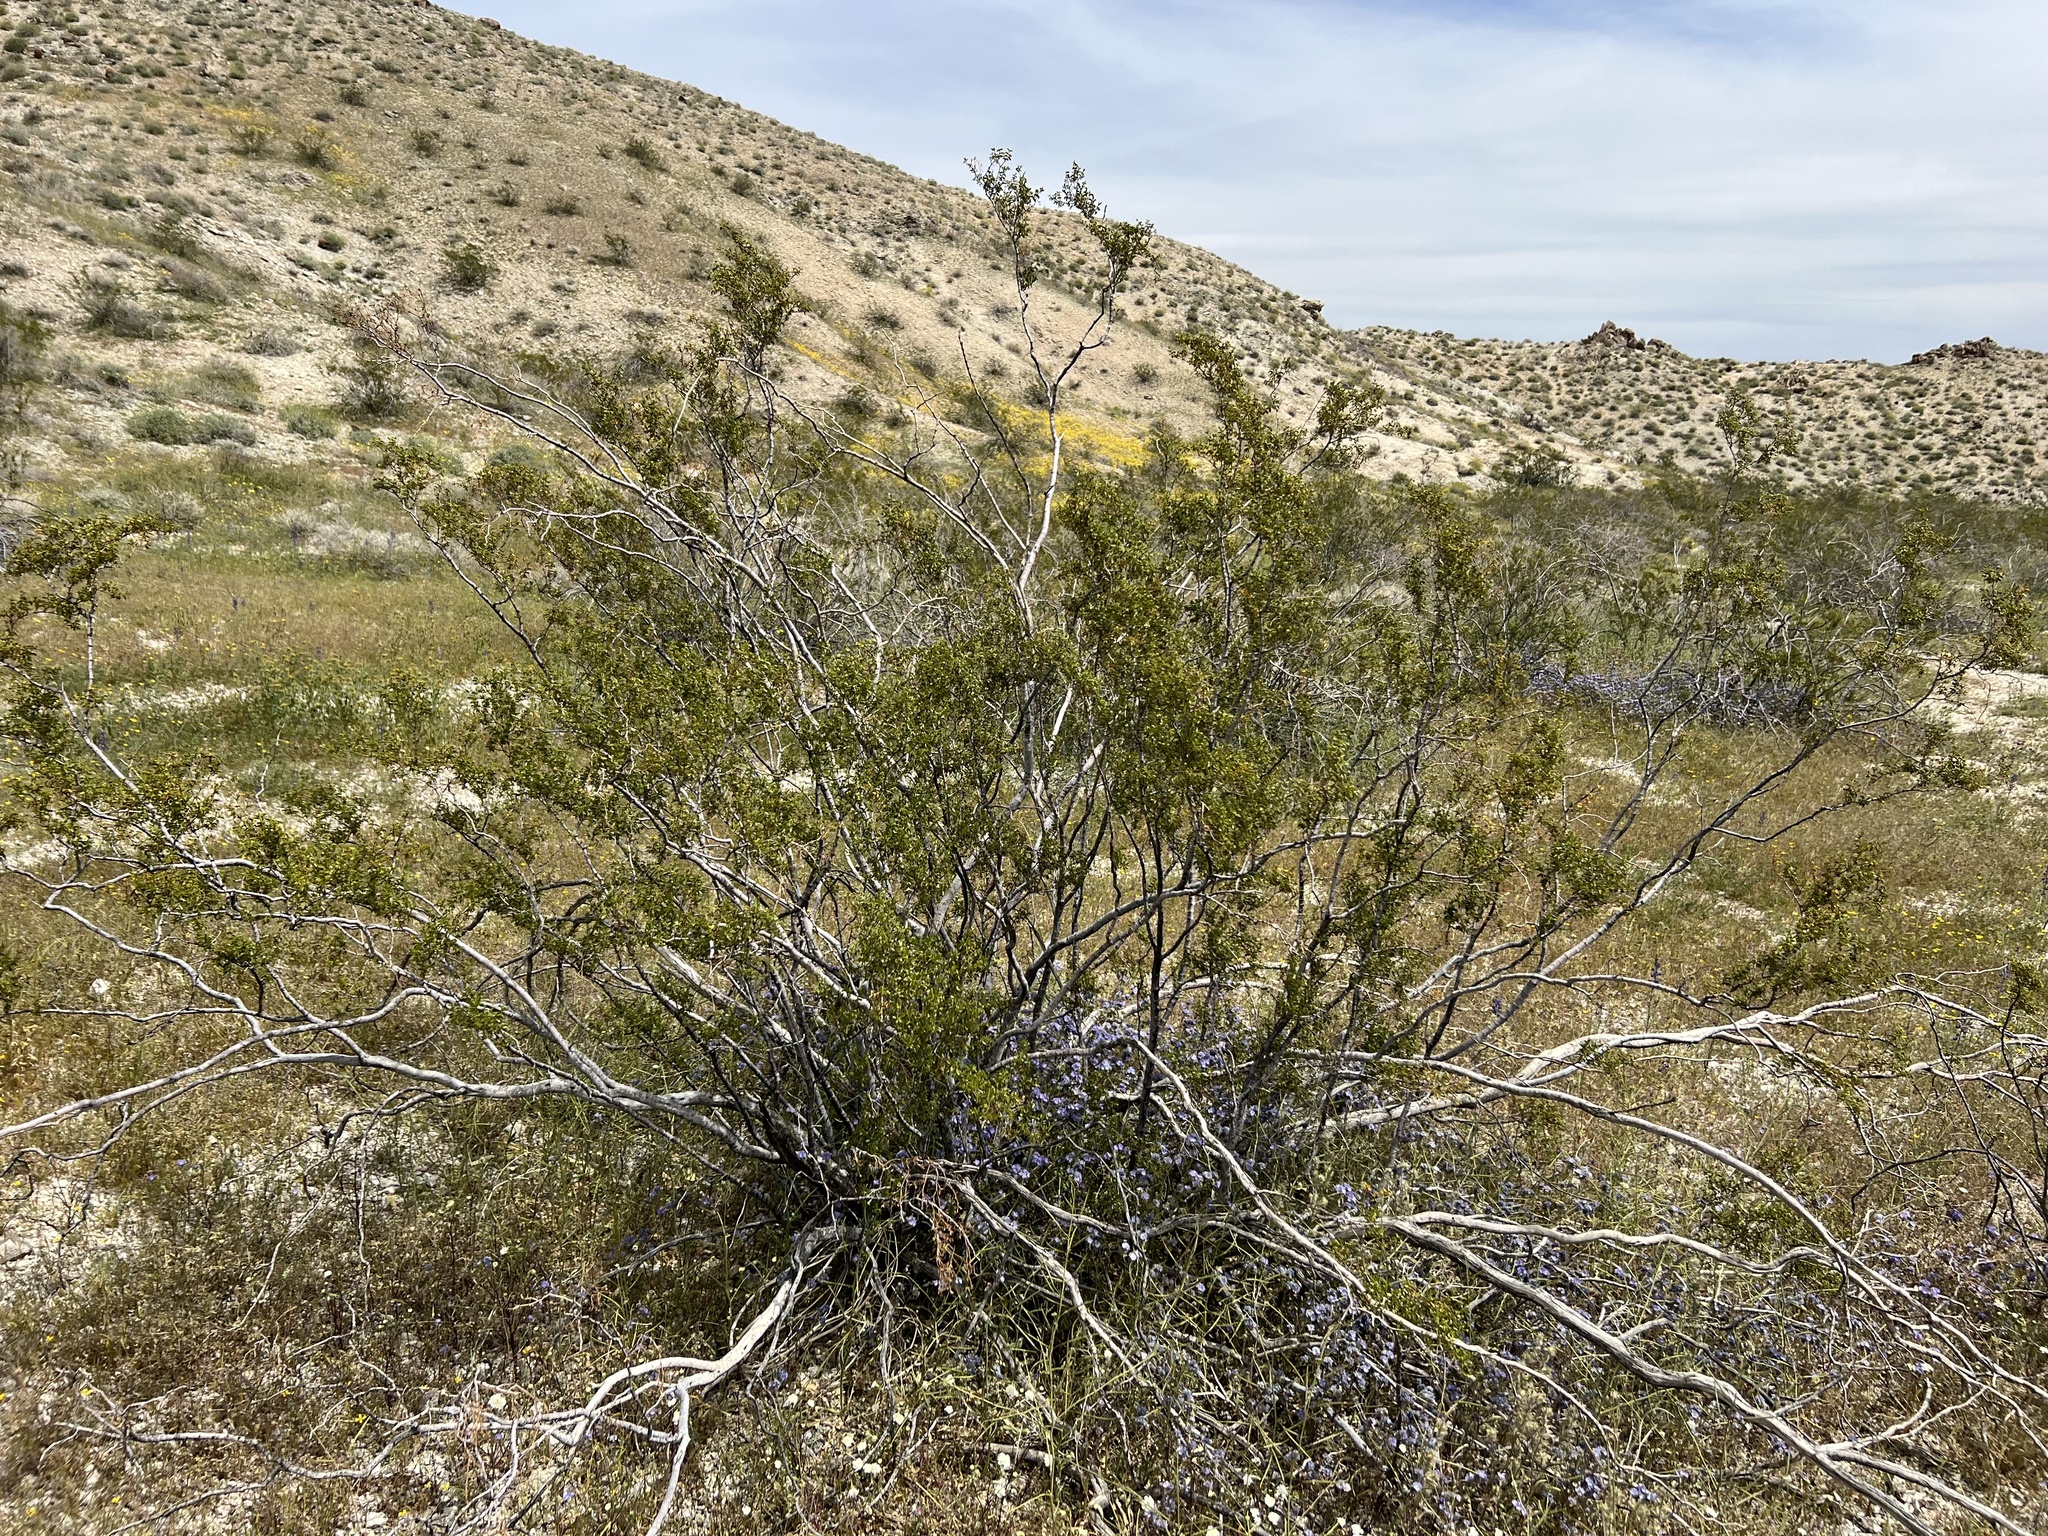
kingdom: Plantae
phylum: Tracheophyta
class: Magnoliopsida
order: Zygophyllales
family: Zygophyllaceae
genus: Larrea
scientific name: Larrea tridentata
